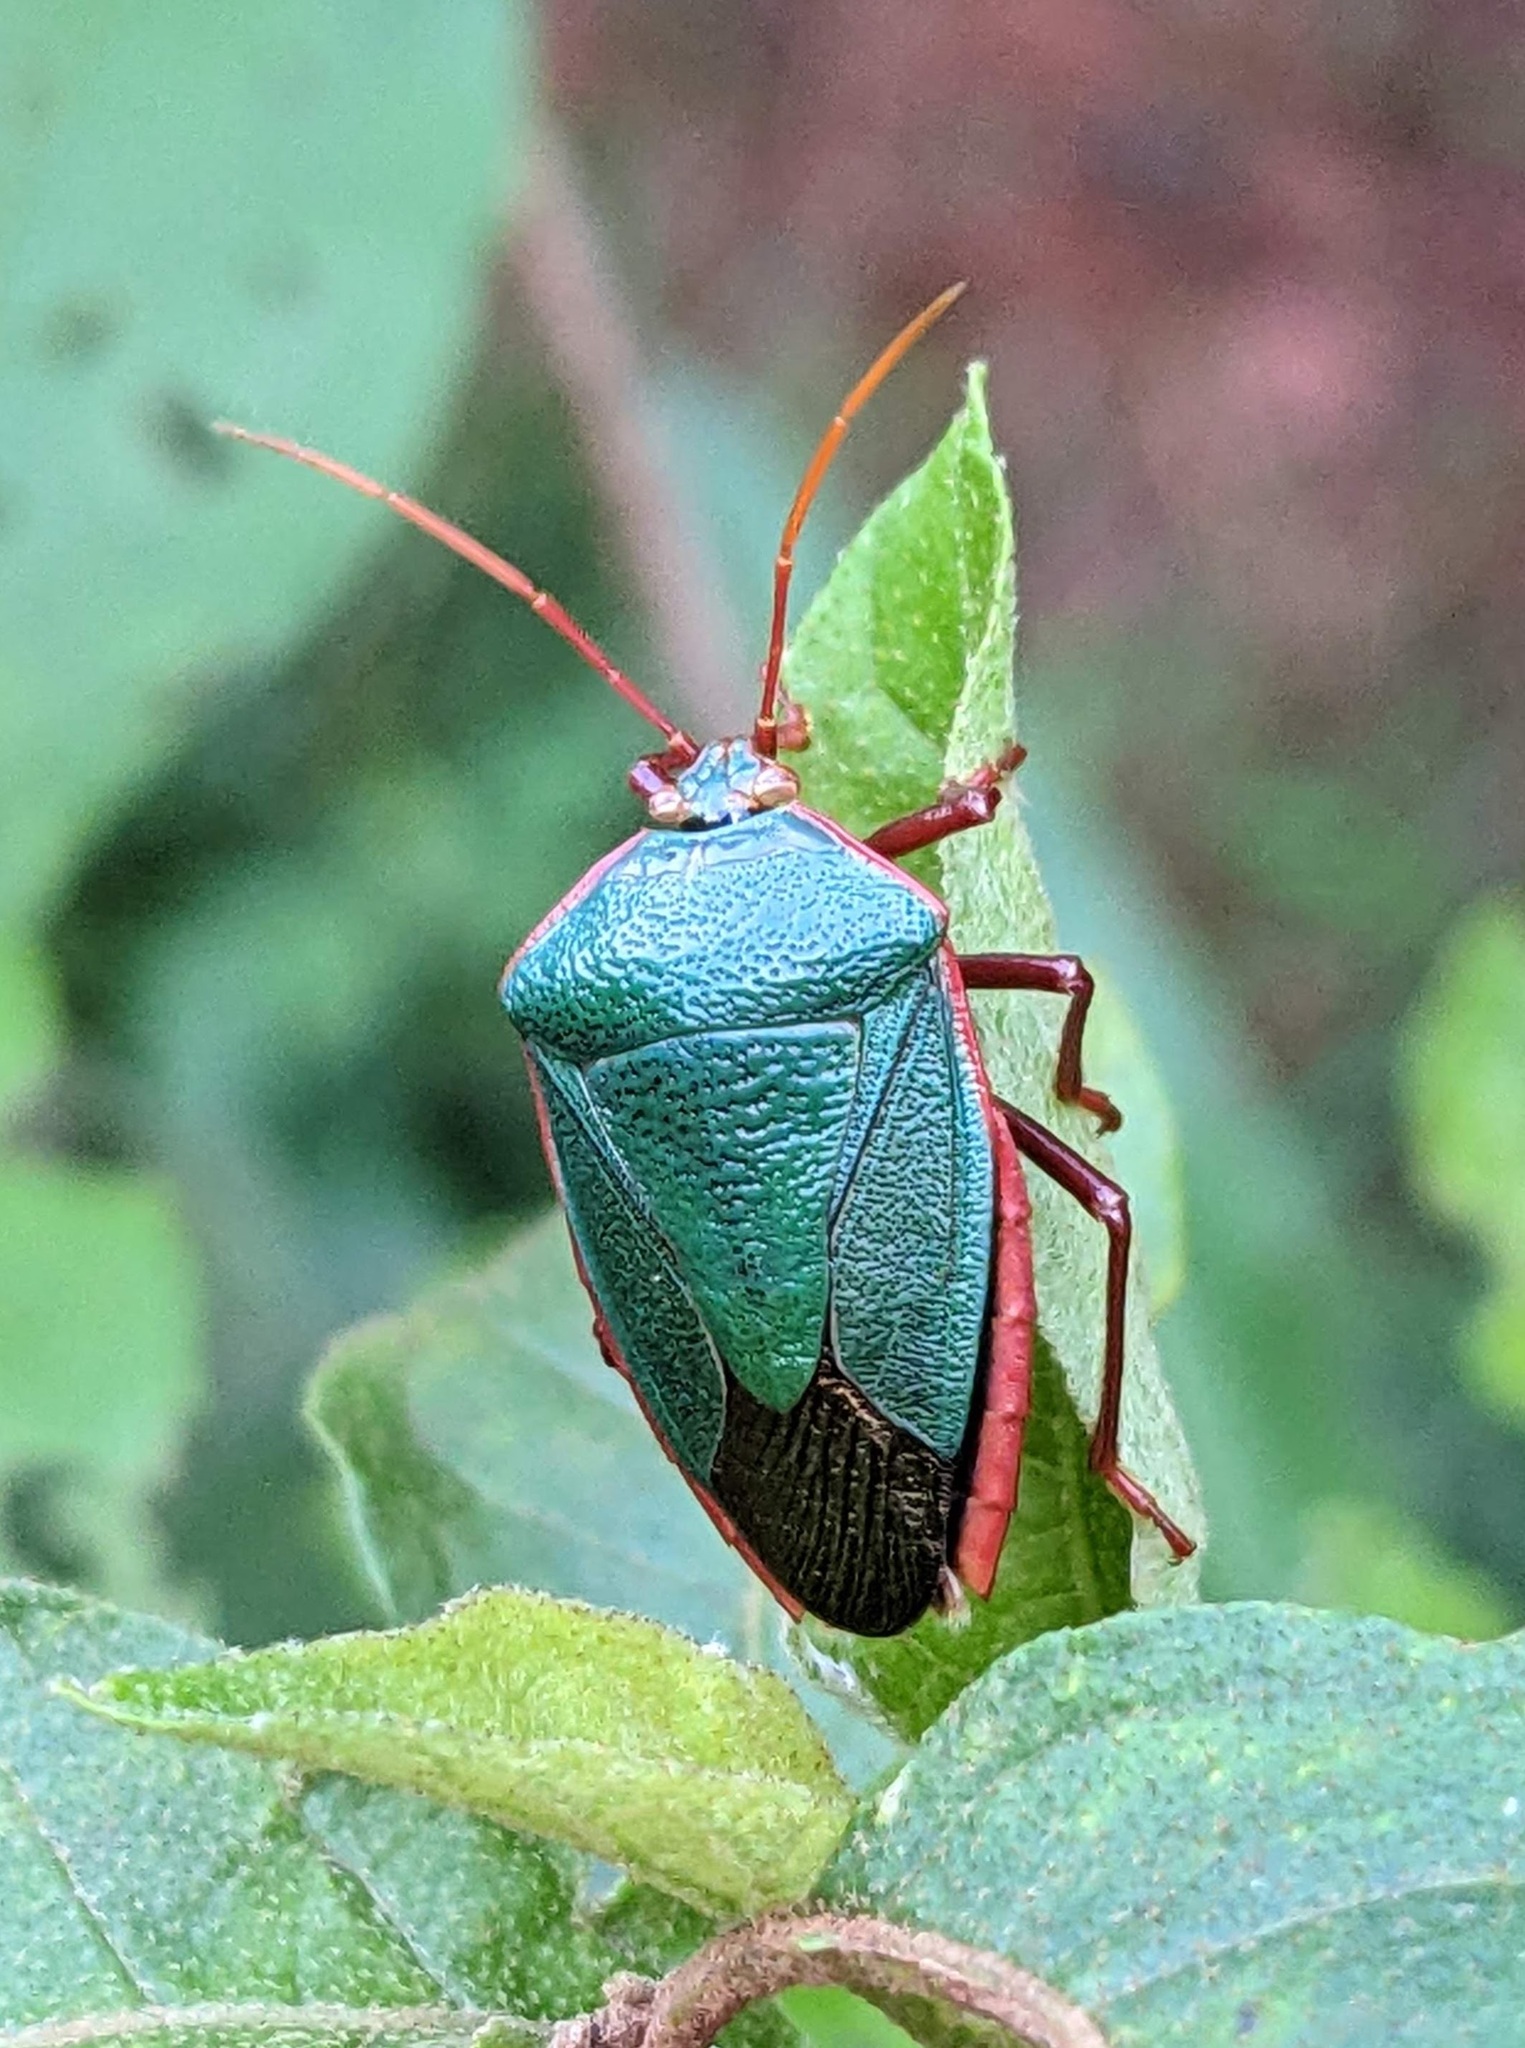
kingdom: Animalia
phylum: Arthropoda
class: Insecta
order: Hemiptera
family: Pentatomidae
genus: Edessa
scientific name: Edessa rufomarginata
